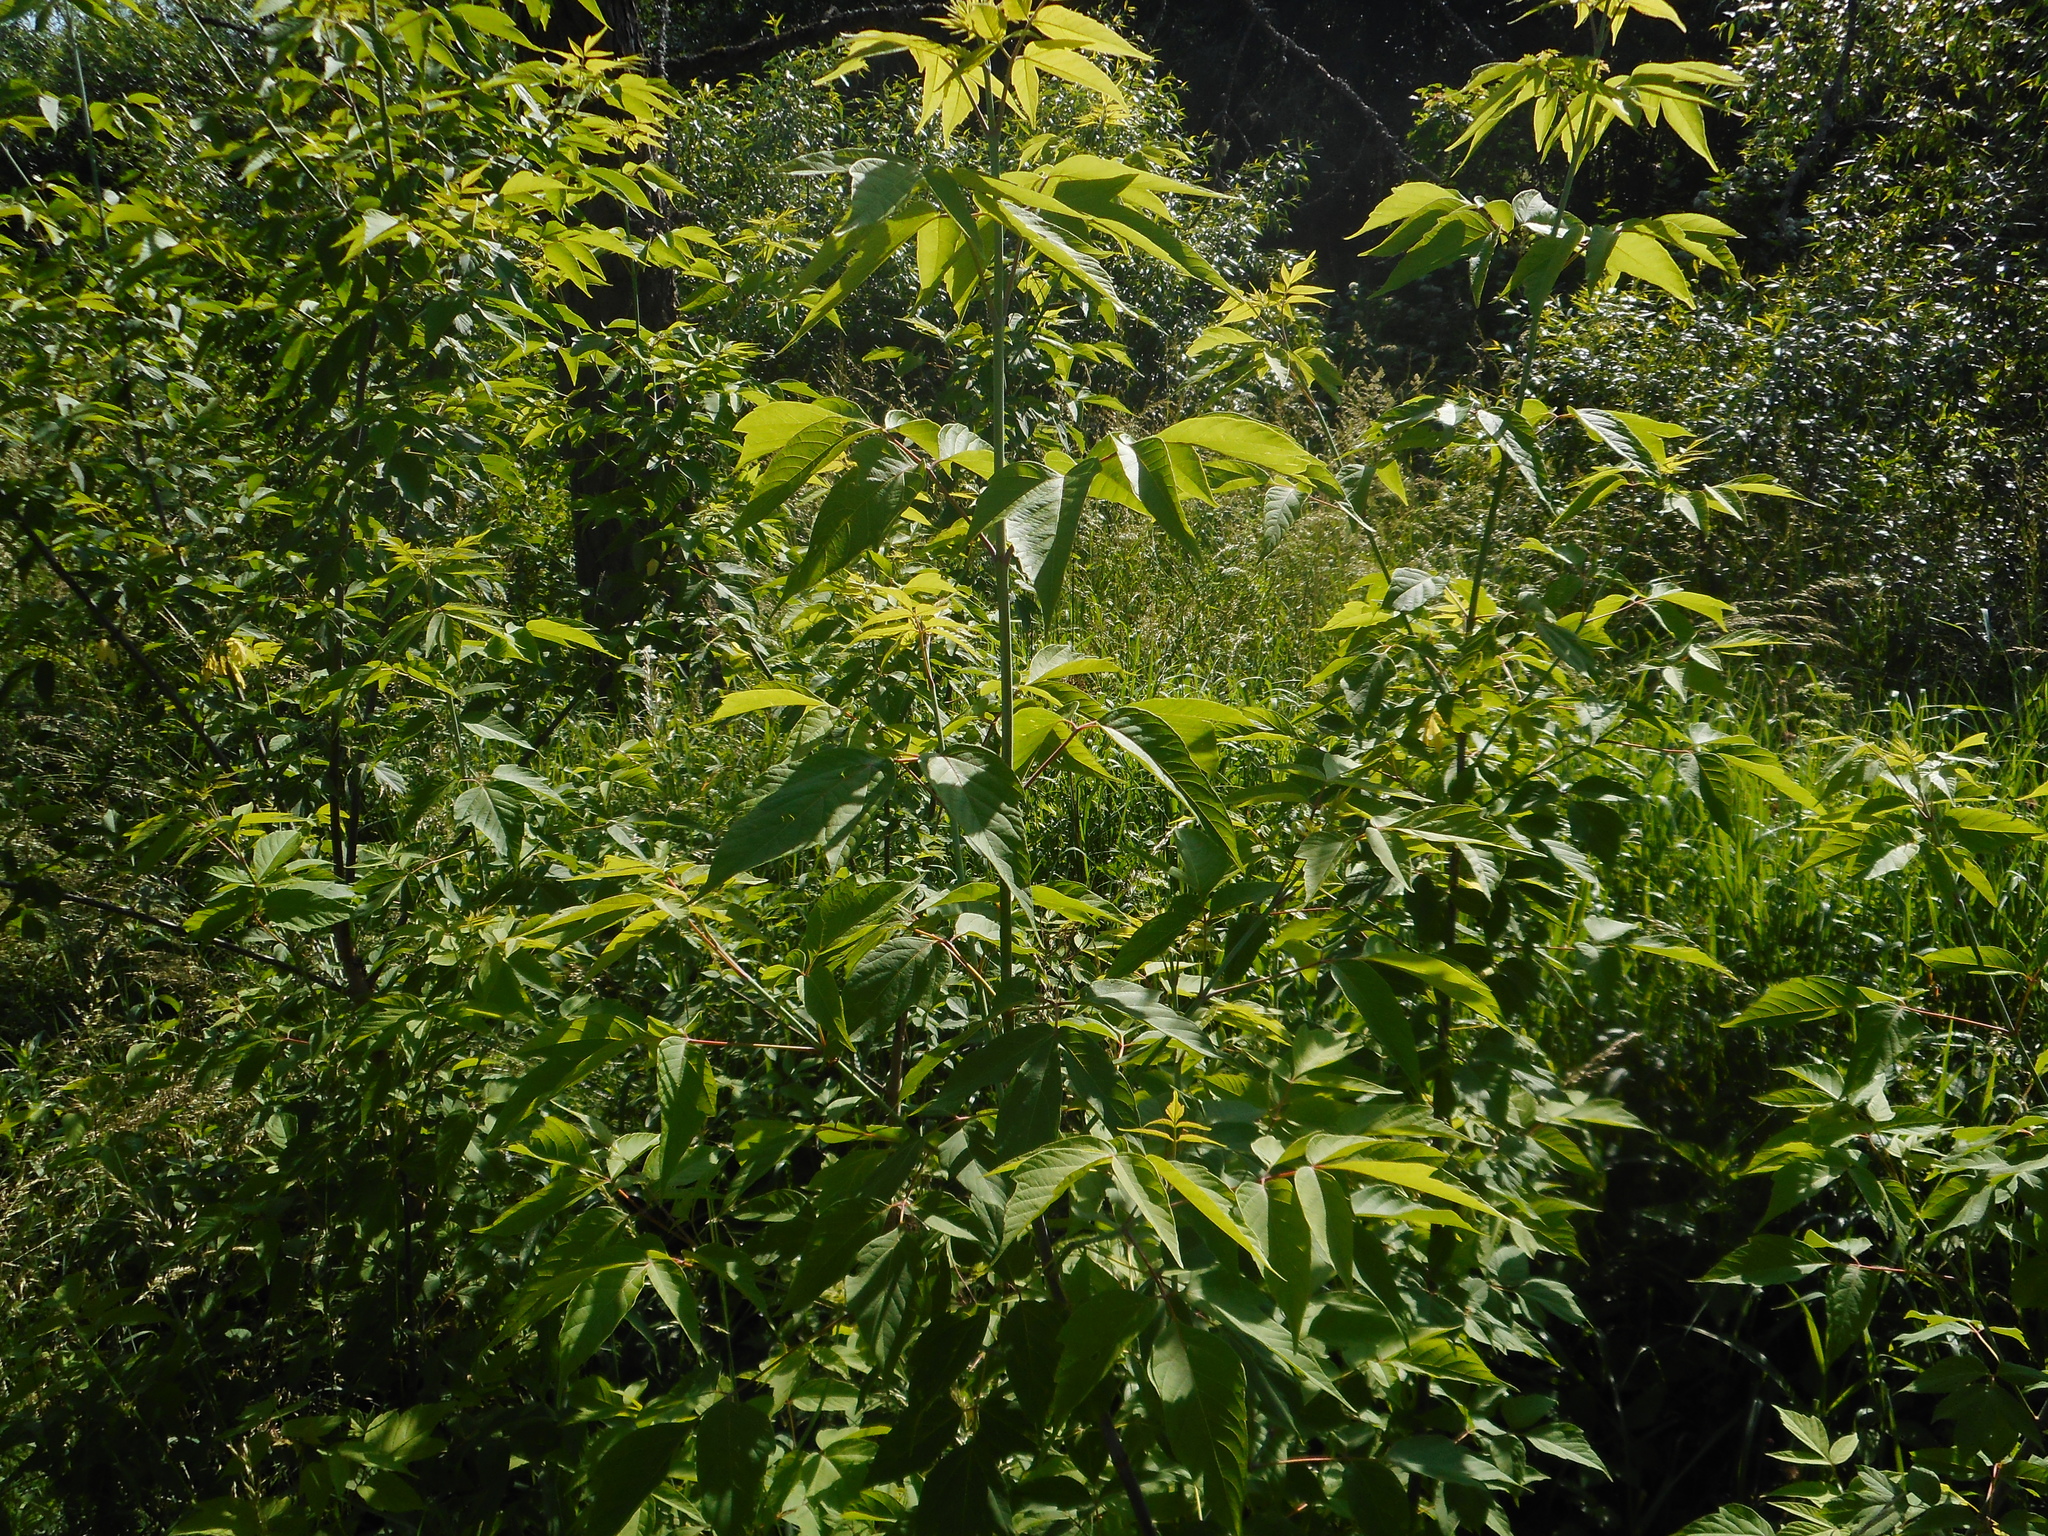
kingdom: Plantae
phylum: Tracheophyta
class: Magnoliopsida
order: Sapindales
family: Sapindaceae
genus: Acer
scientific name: Acer negundo
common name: Ashleaf maple
